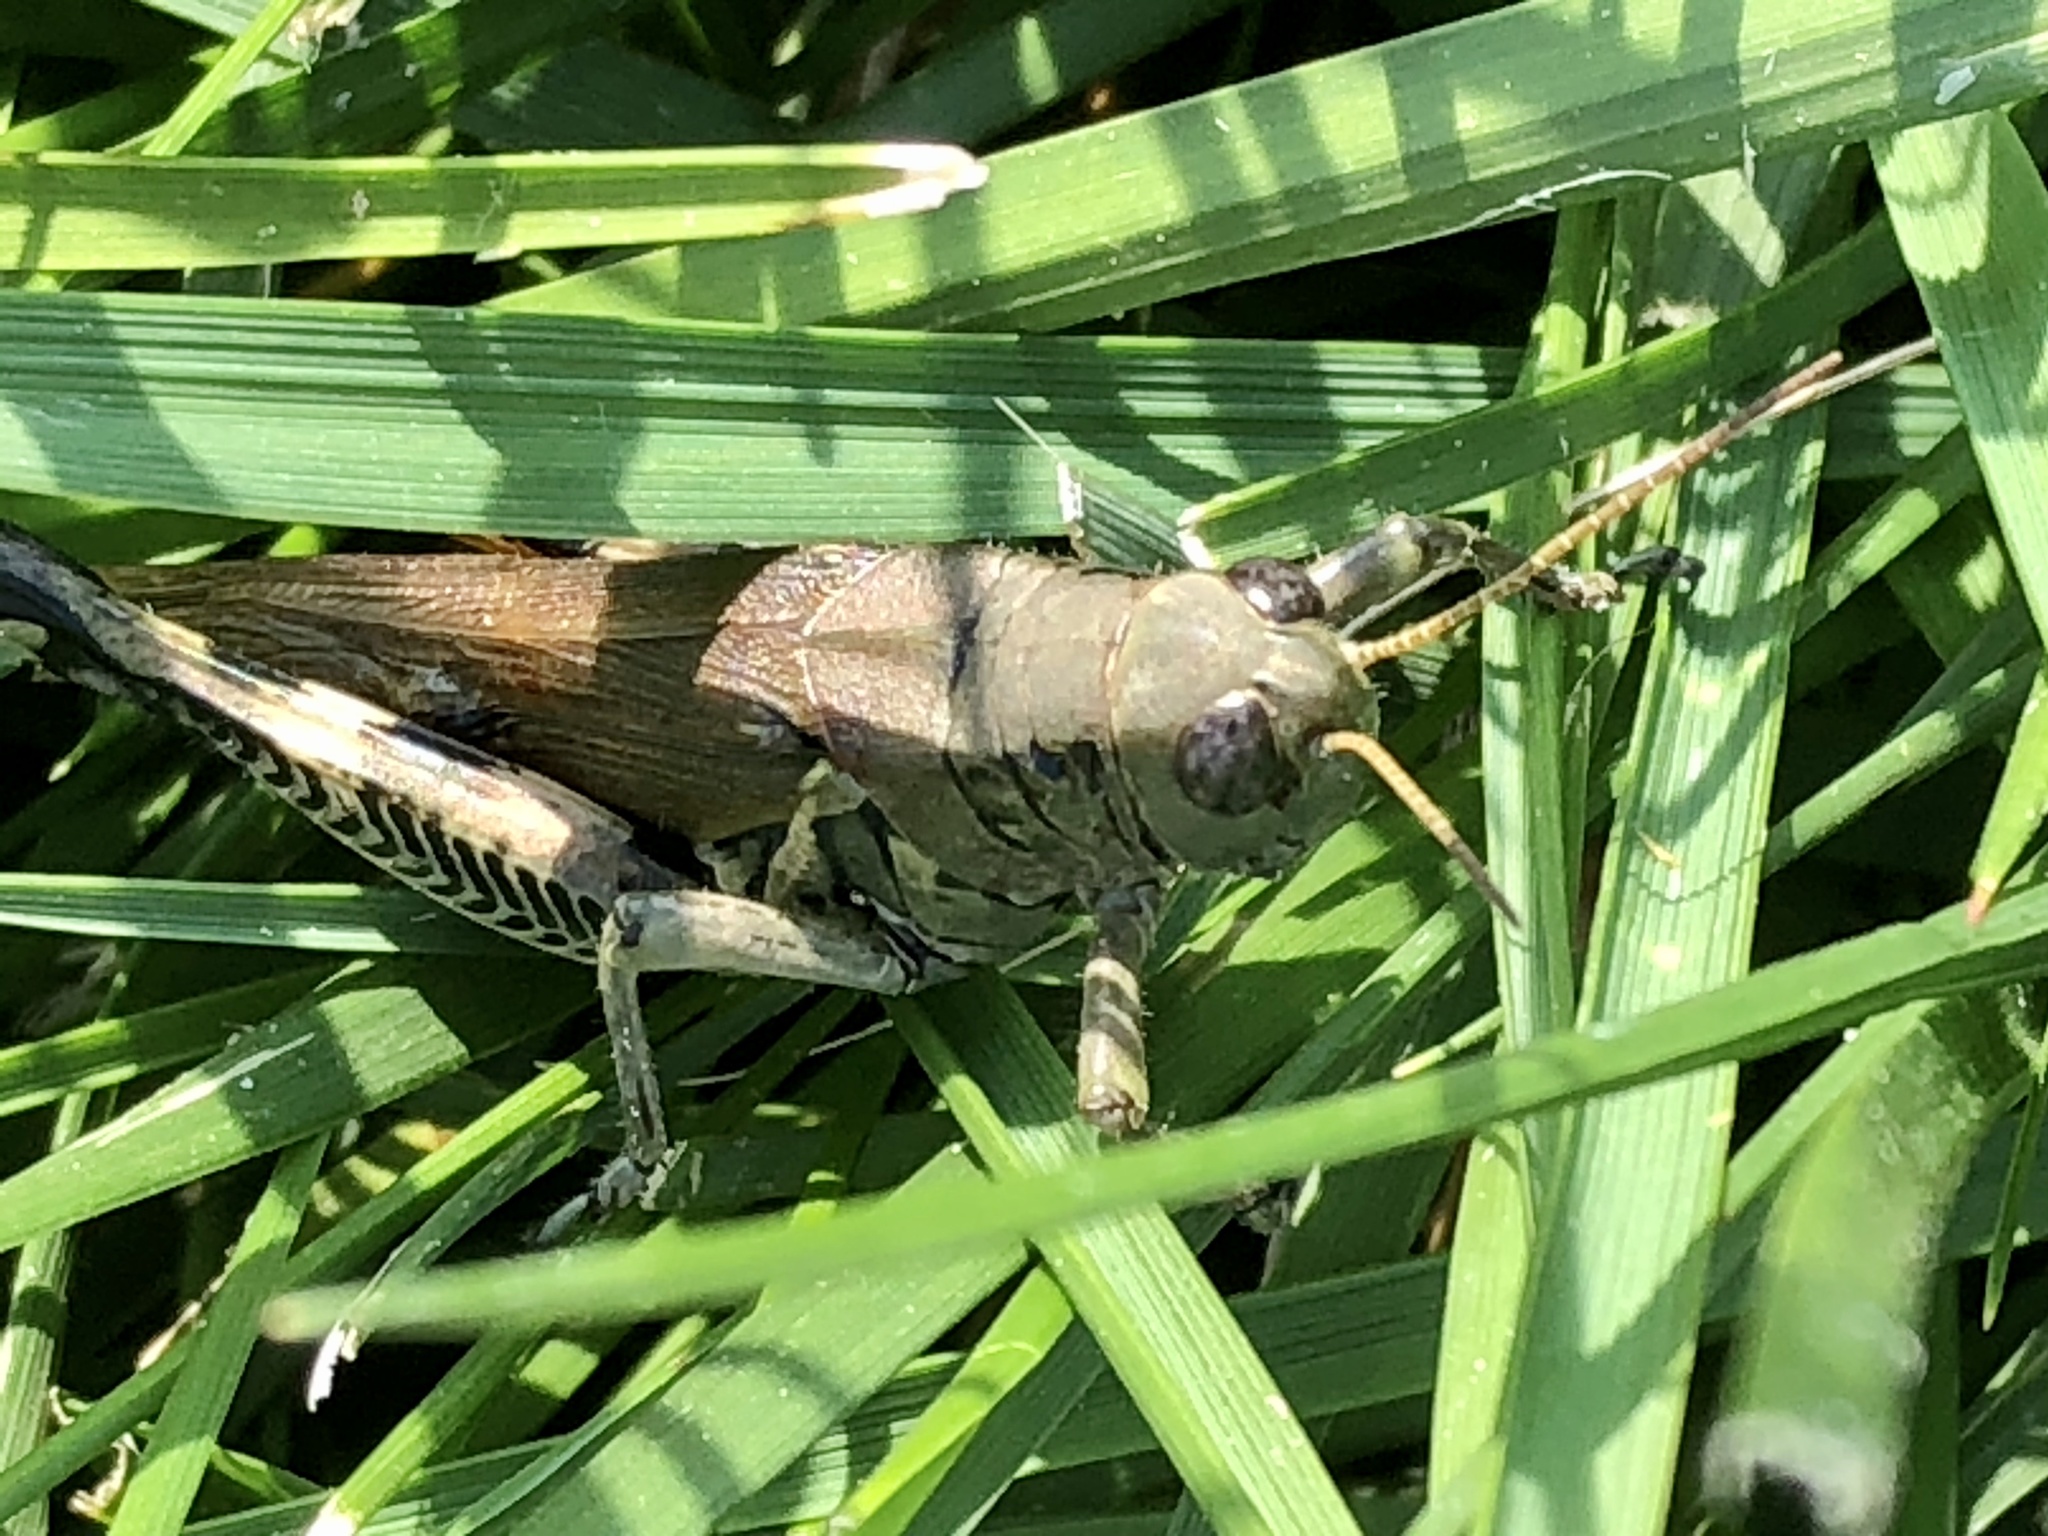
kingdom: Animalia
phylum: Arthropoda
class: Insecta
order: Orthoptera
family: Acrididae
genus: Melanoplus
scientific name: Melanoplus differentialis
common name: Differential grasshopper
